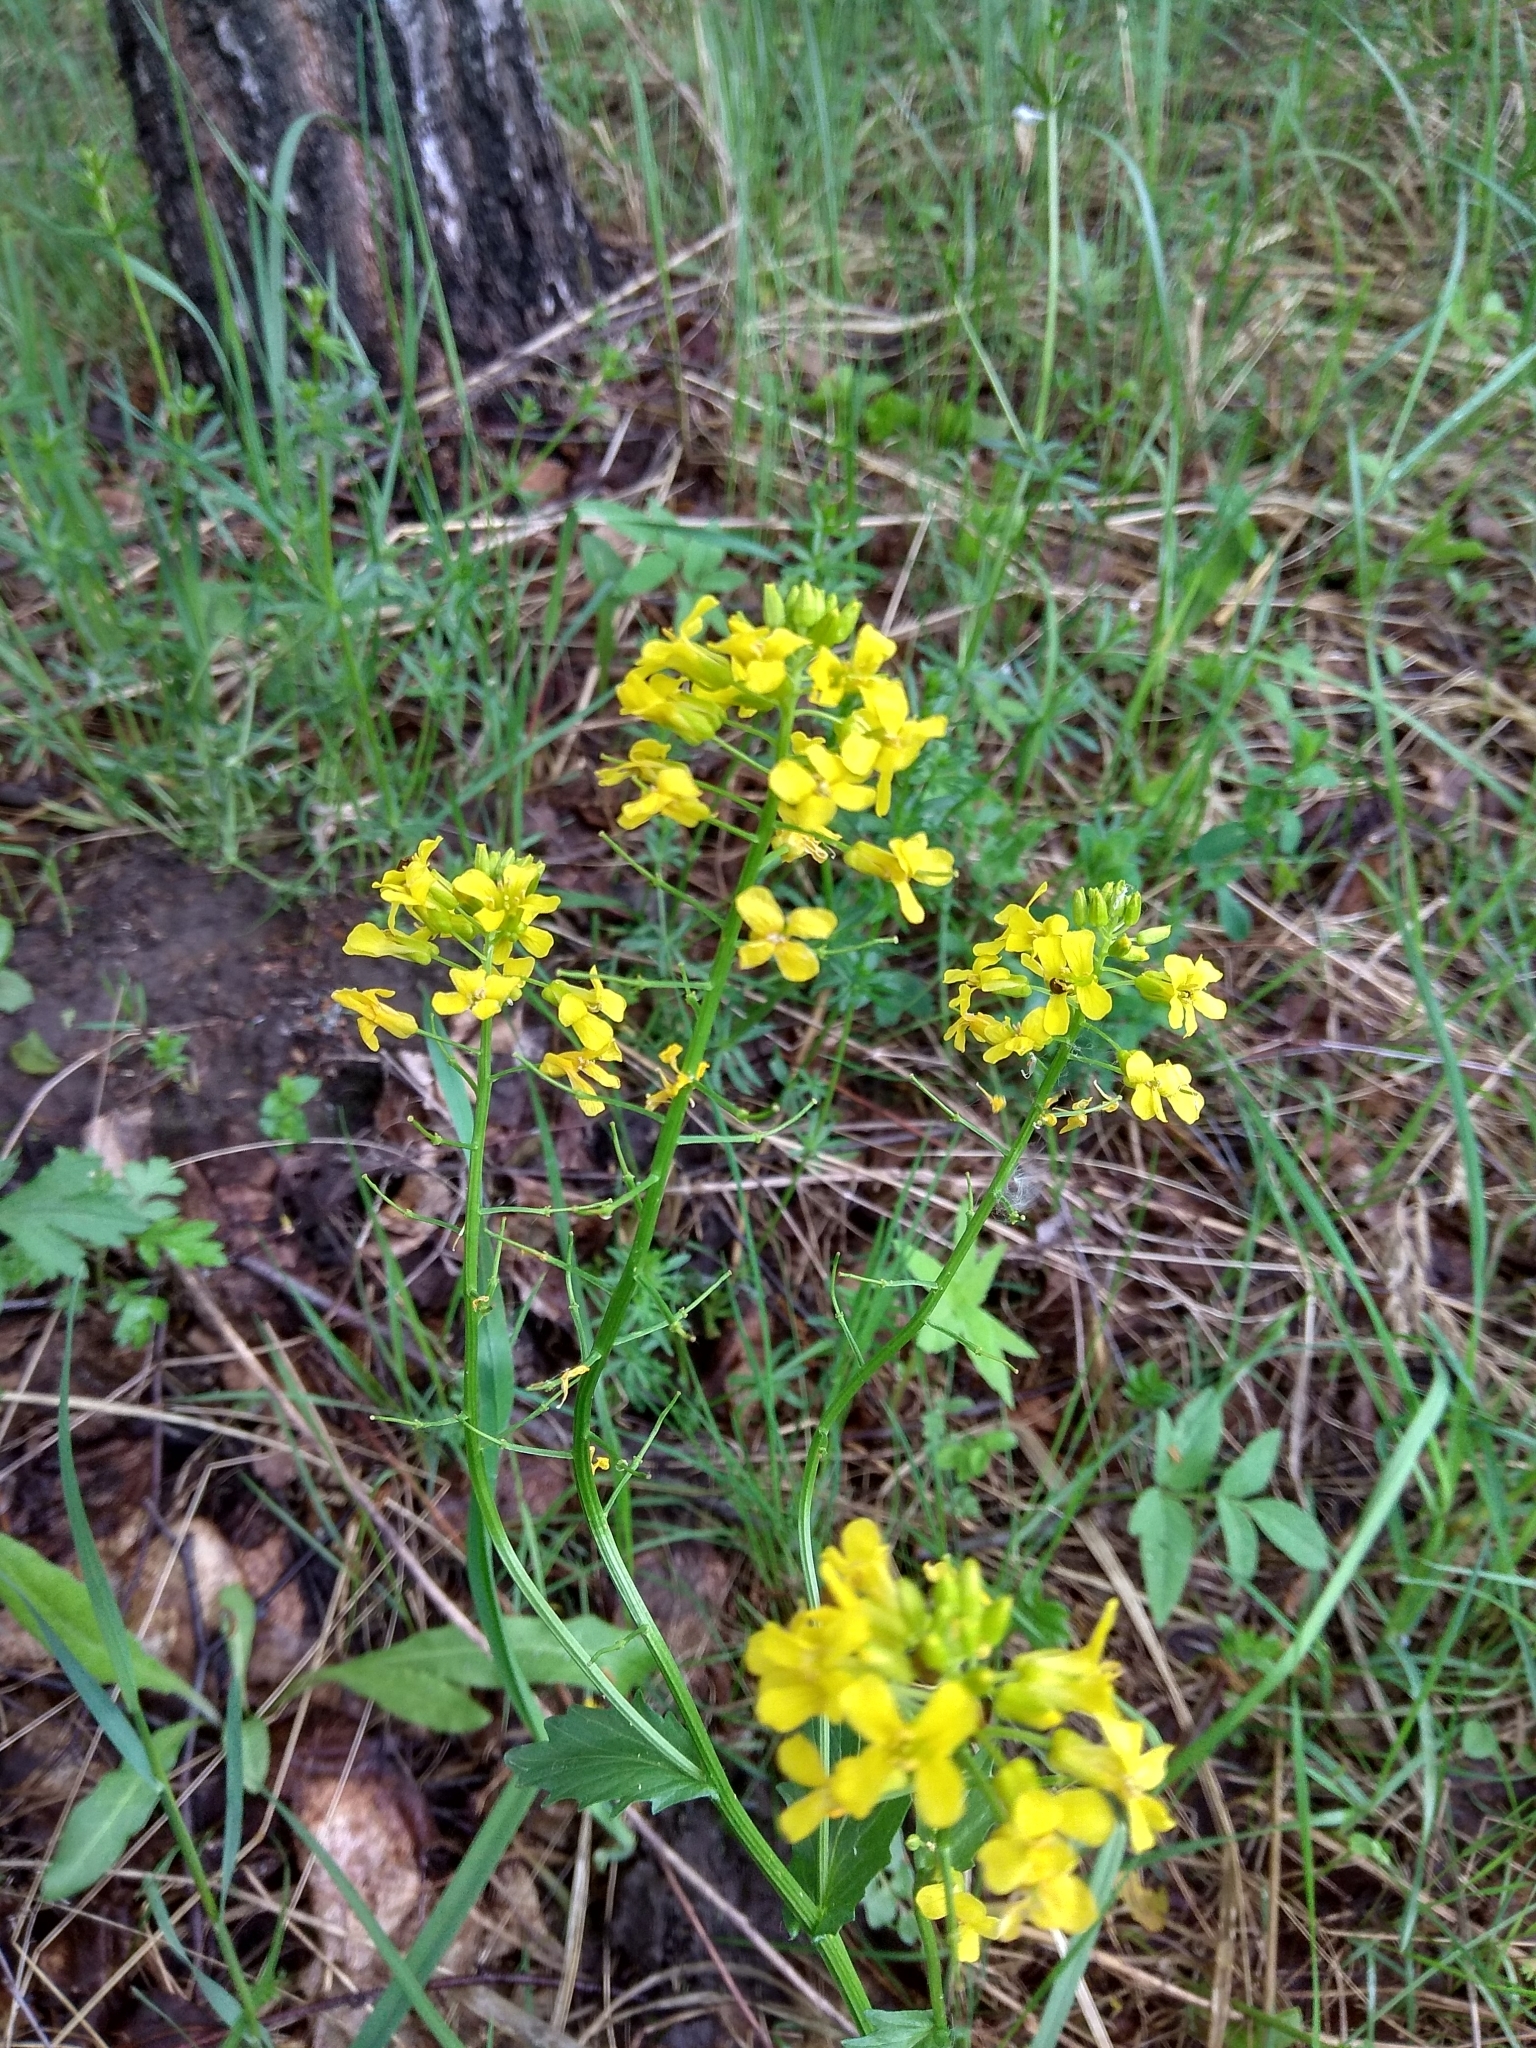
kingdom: Plantae
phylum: Tracheophyta
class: Magnoliopsida
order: Brassicales
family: Brassicaceae
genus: Barbarea
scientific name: Barbarea vulgaris
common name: Cressy-greens
